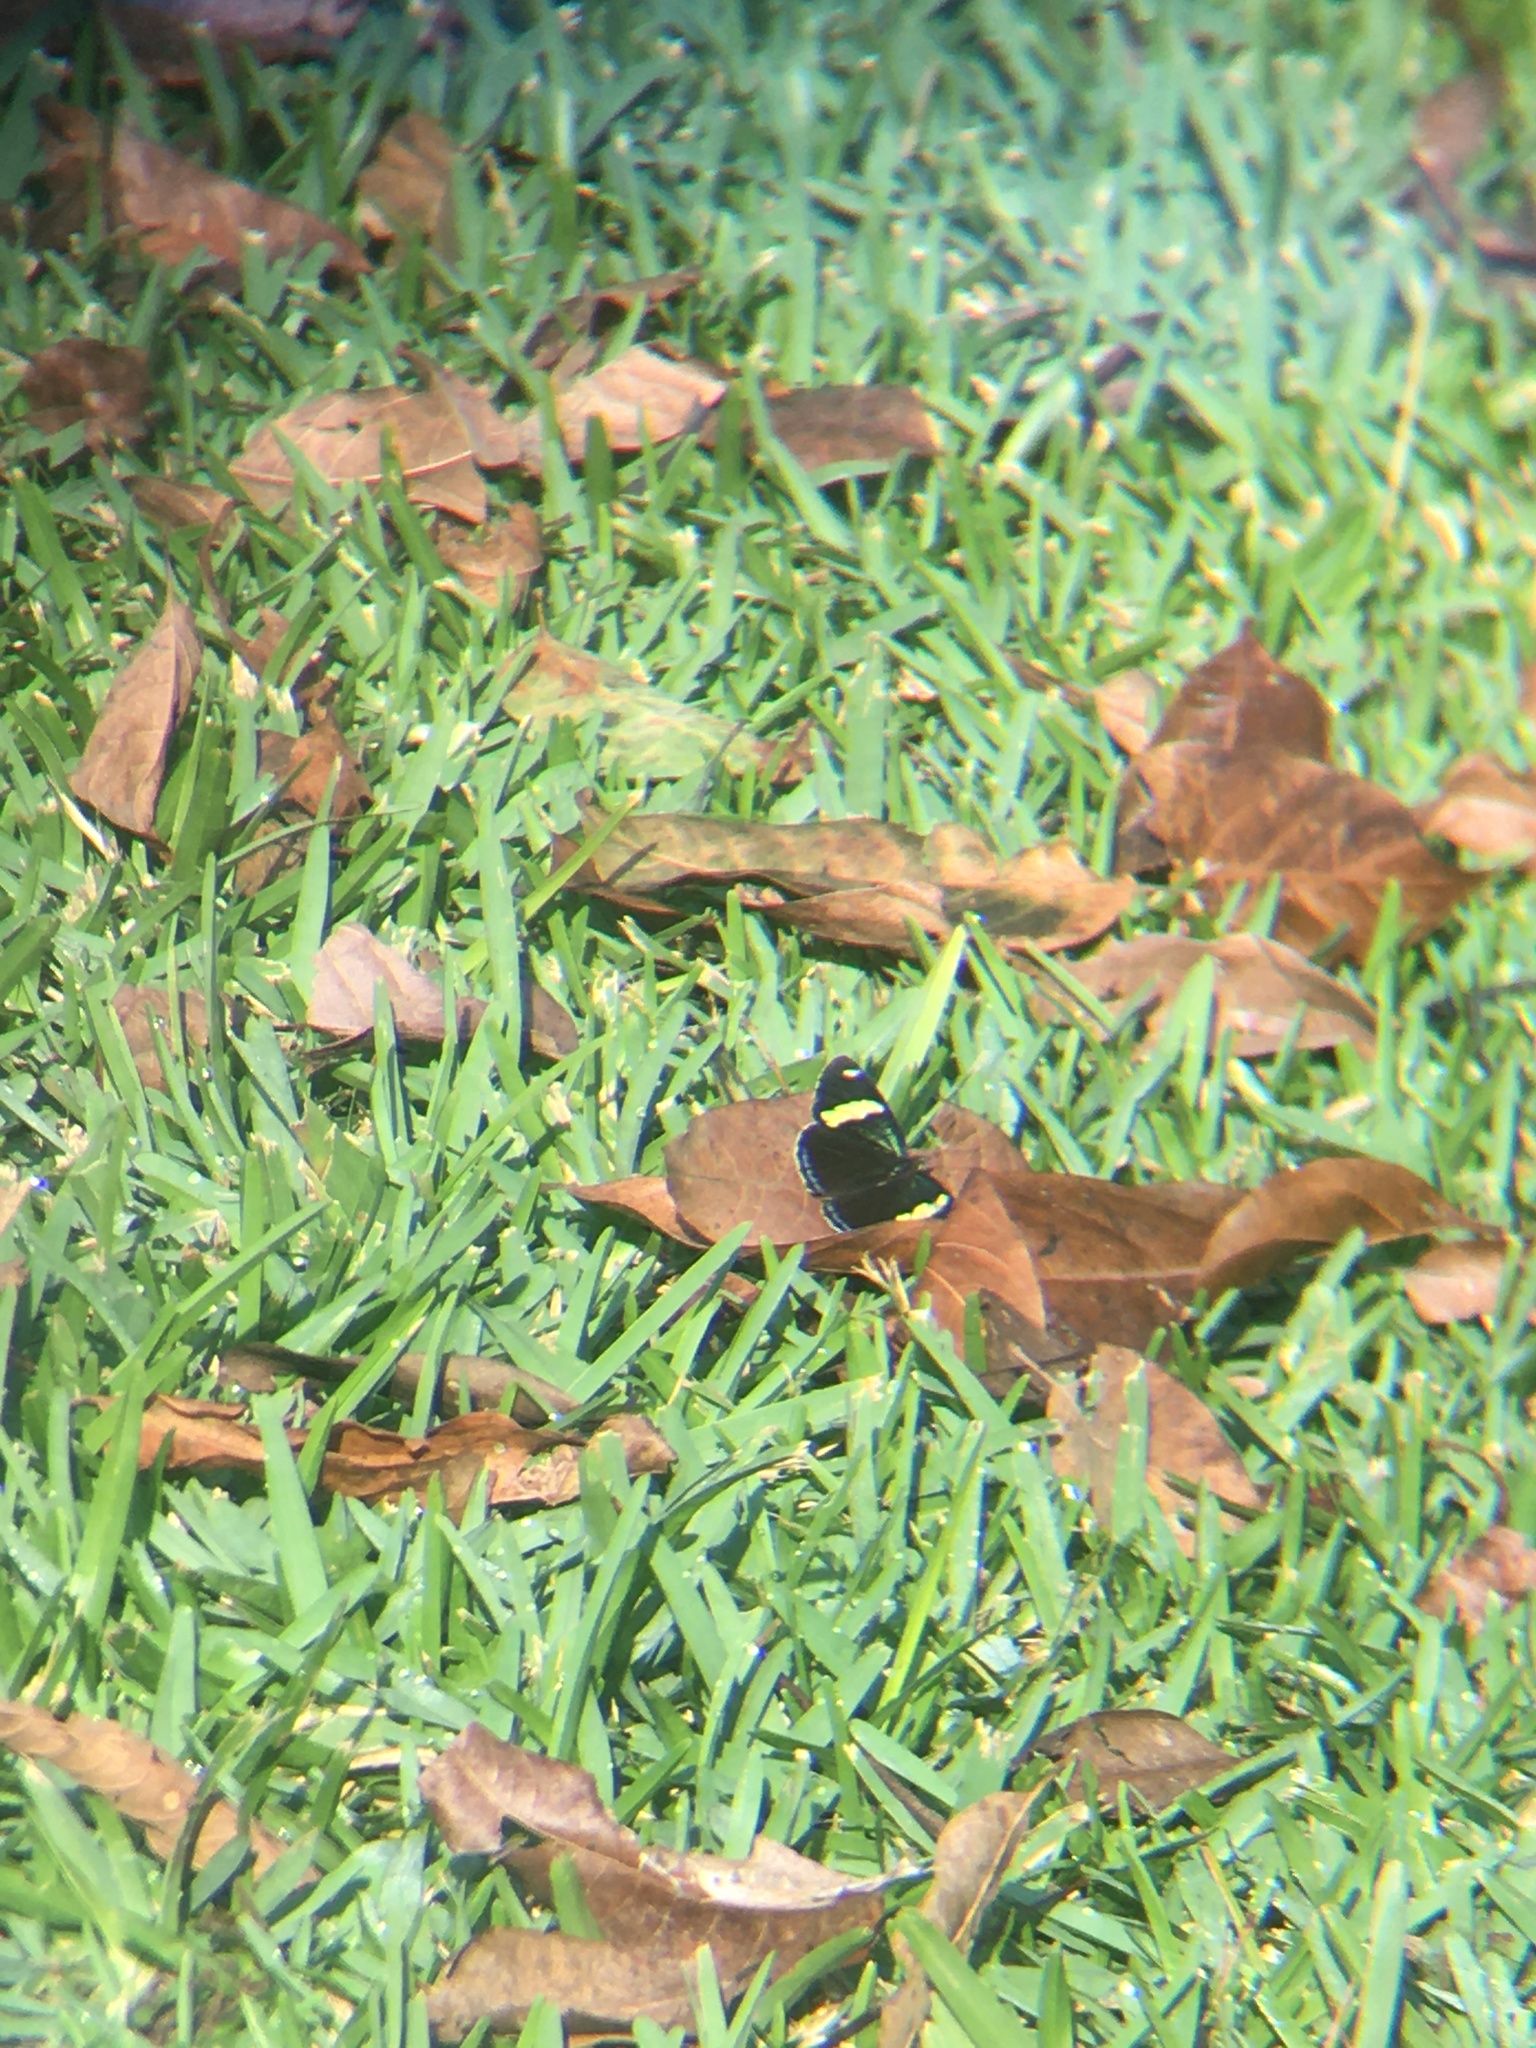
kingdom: Animalia
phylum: Arthropoda
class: Insecta
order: Lepidoptera
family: Nymphalidae
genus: Diaethria
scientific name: Diaethria anna
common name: Anna’s eighty-eight
